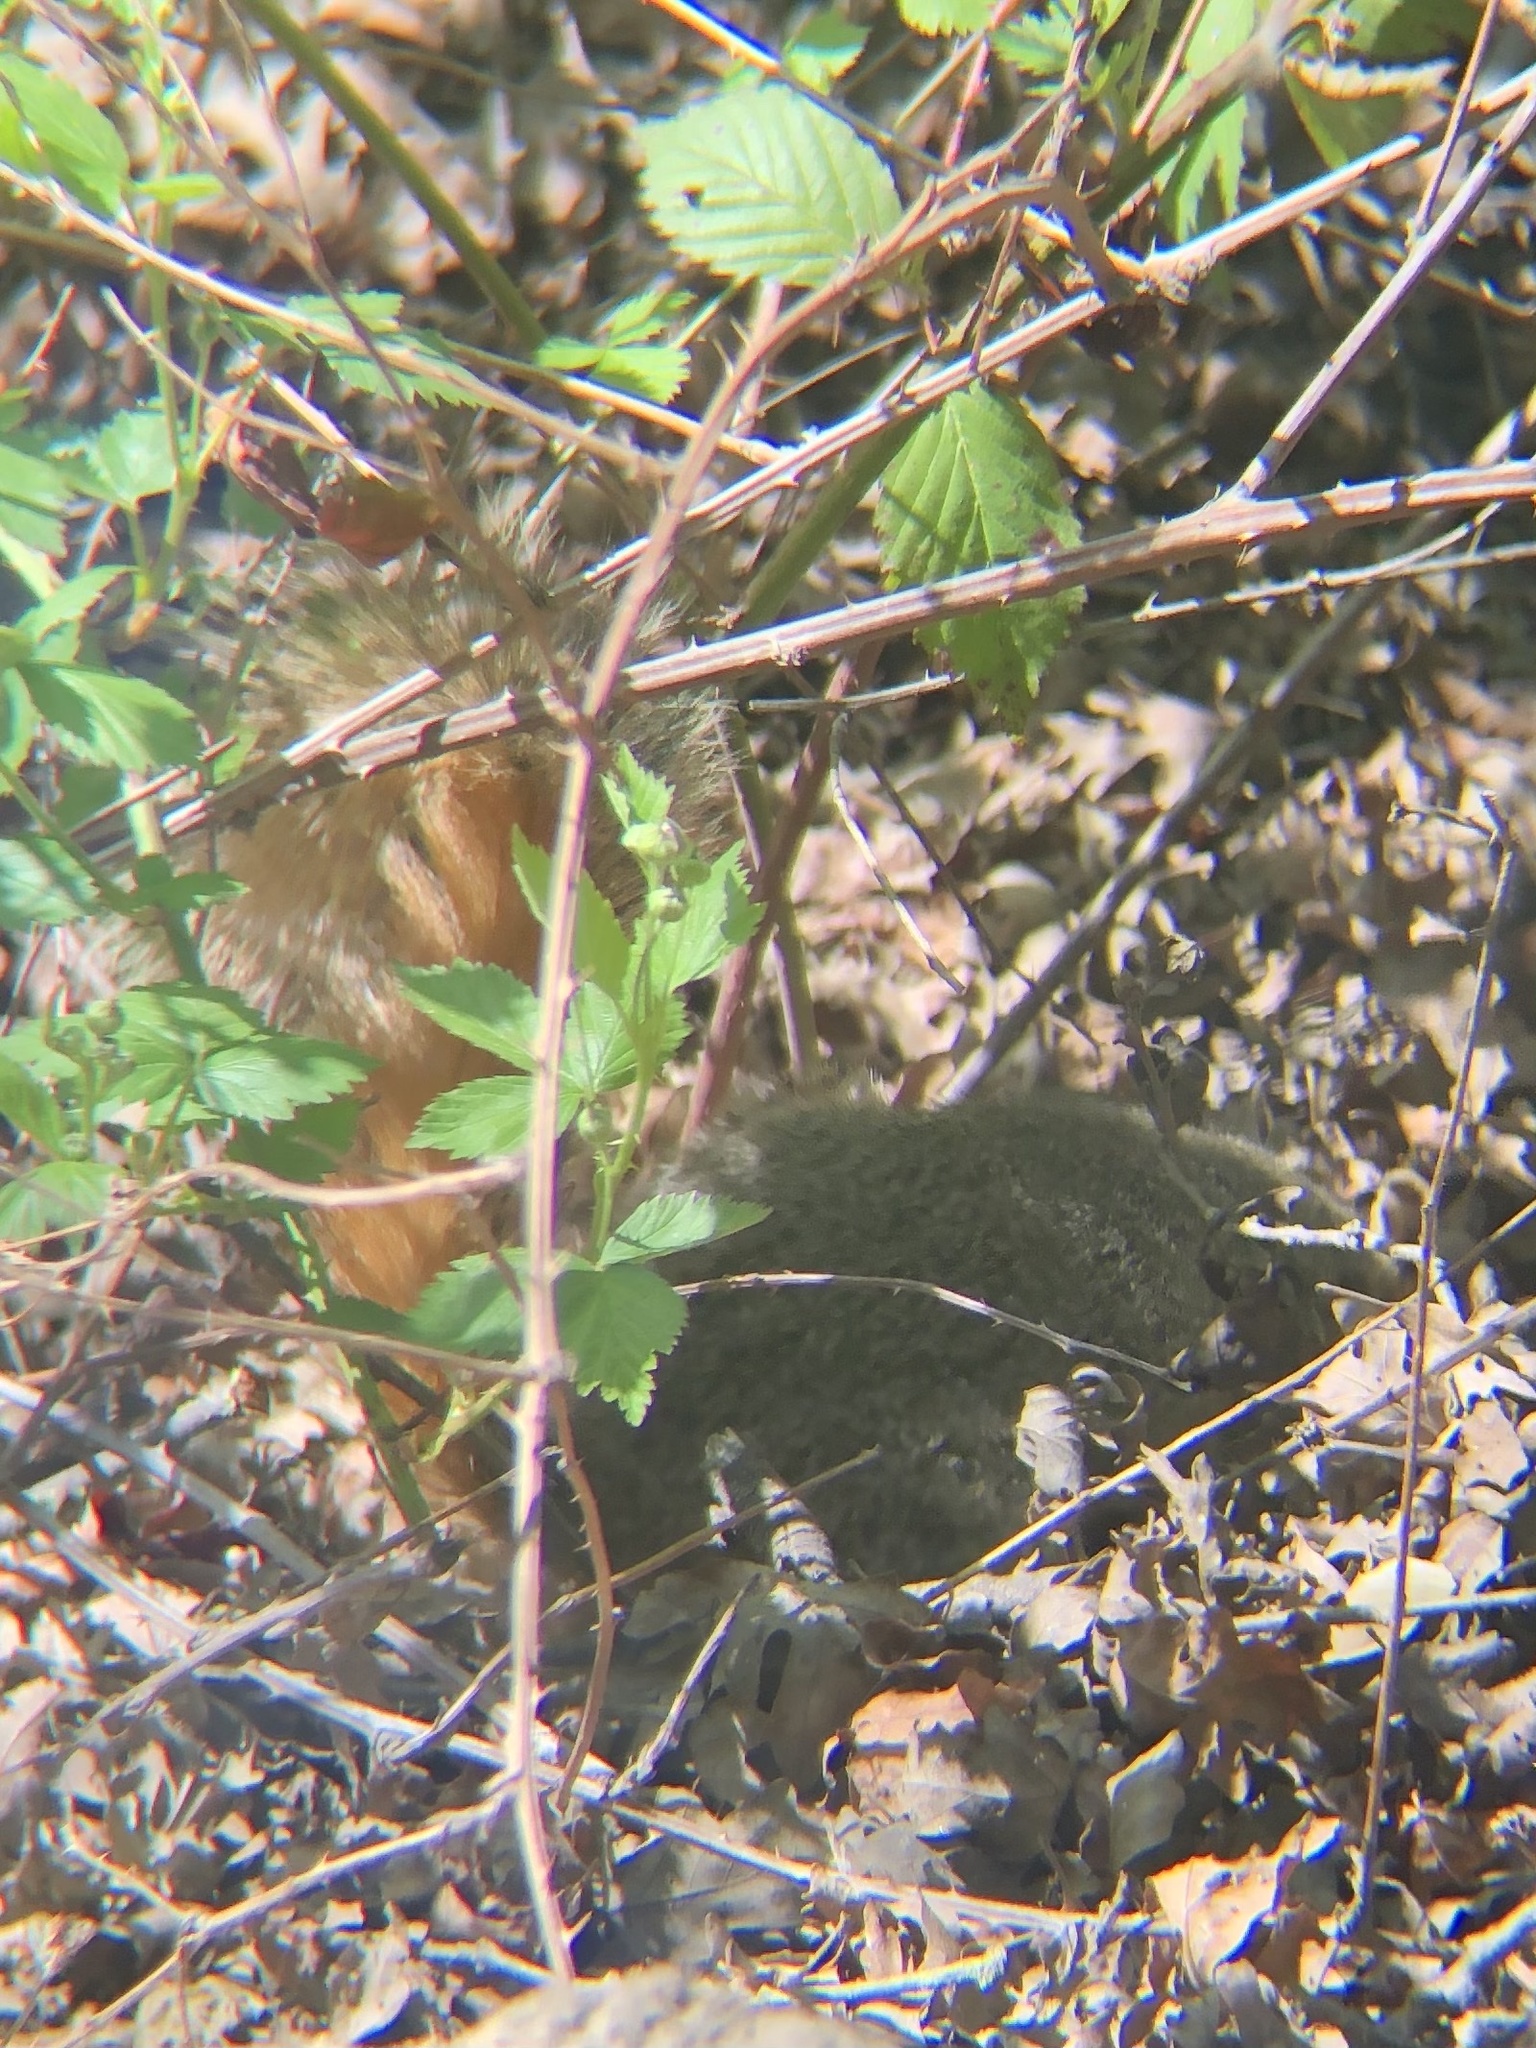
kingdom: Animalia
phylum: Chordata
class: Mammalia
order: Rodentia
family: Sciuridae
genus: Sciurus
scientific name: Sciurus niger
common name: Fox squirrel
